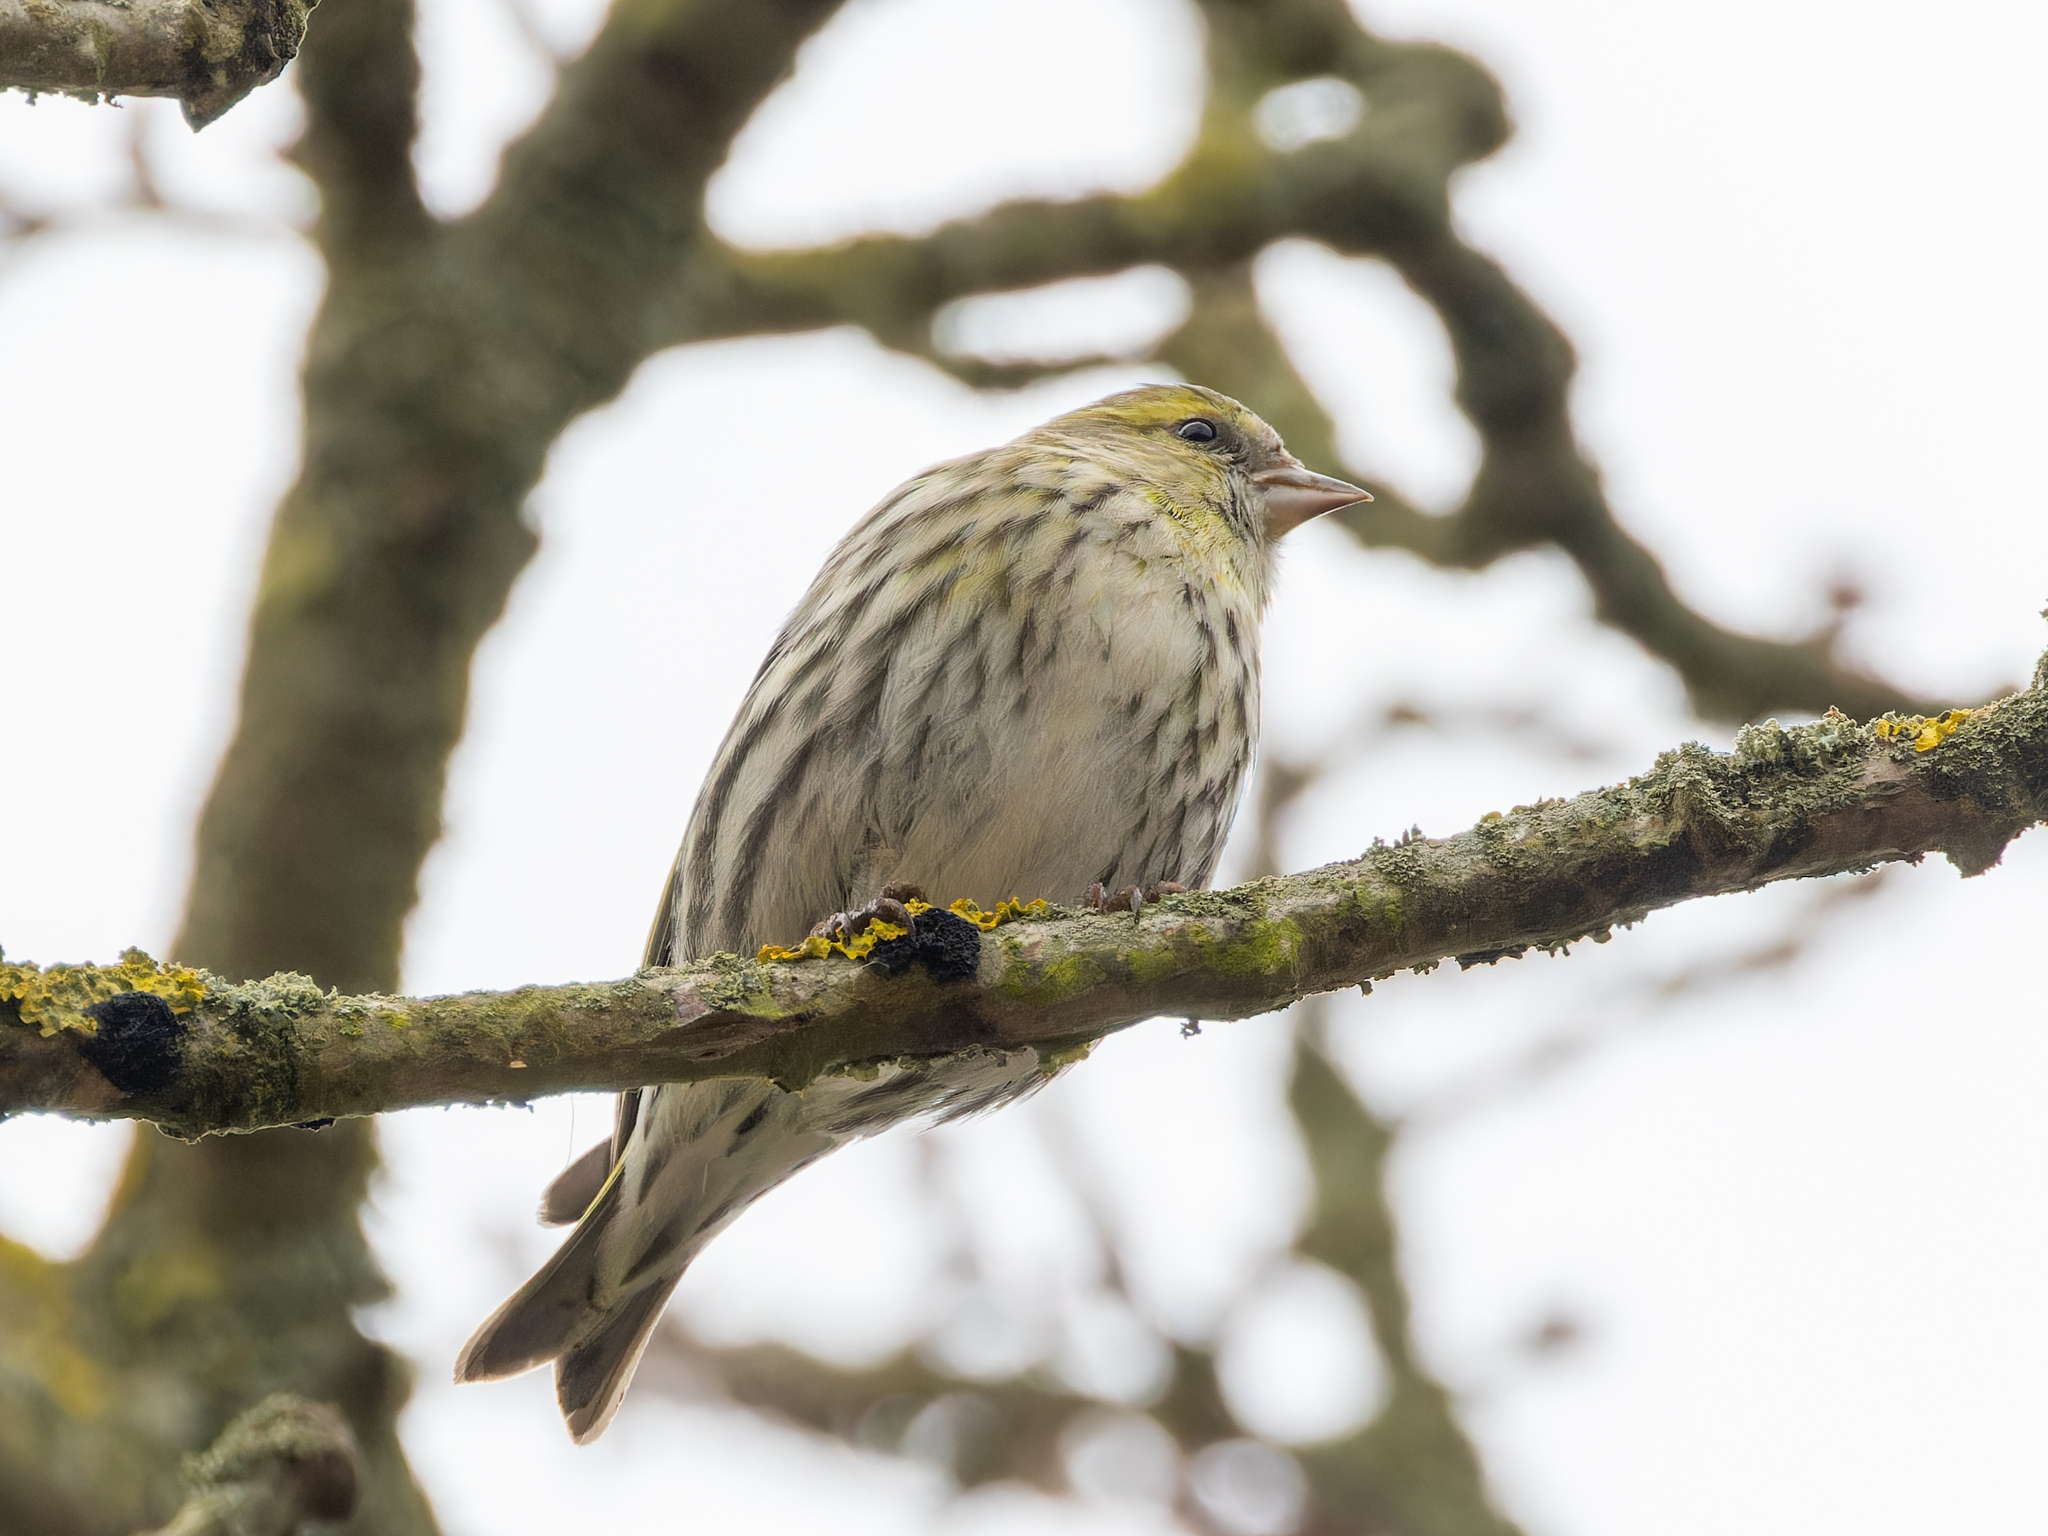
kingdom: Animalia
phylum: Chordata
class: Aves
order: Passeriformes
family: Fringillidae
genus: Spinus
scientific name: Spinus spinus
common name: Eurasian siskin
